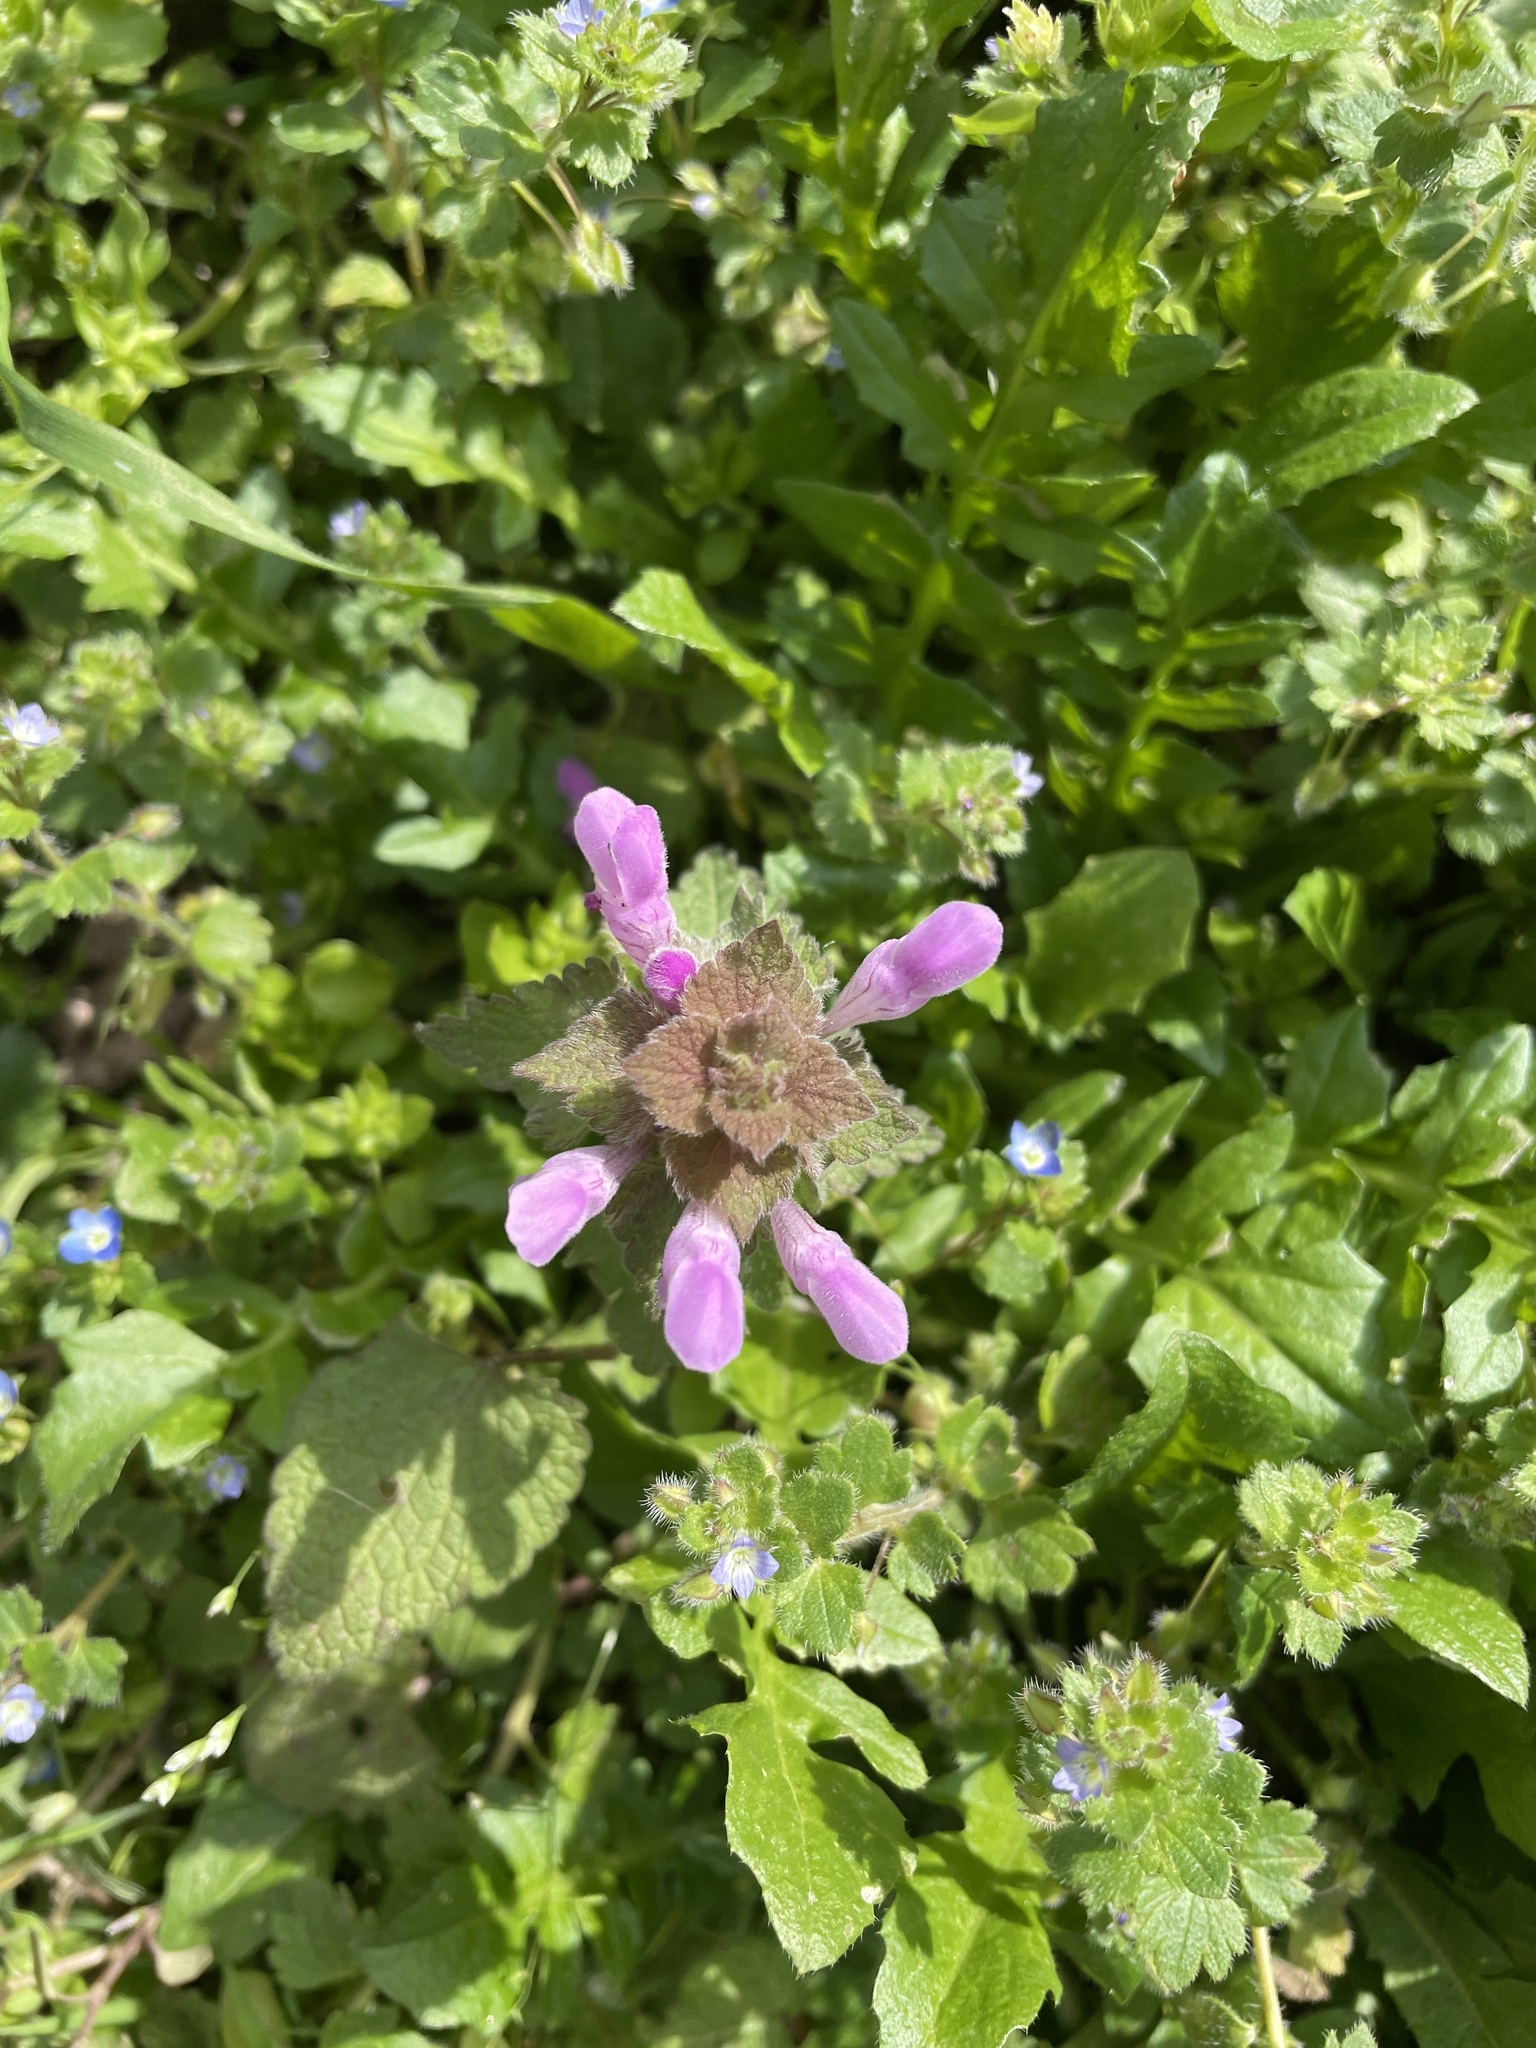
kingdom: Plantae
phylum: Tracheophyta
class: Magnoliopsida
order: Lamiales
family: Lamiaceae
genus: Lamium
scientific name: Lamium purpureum
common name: Red dead-nettle
